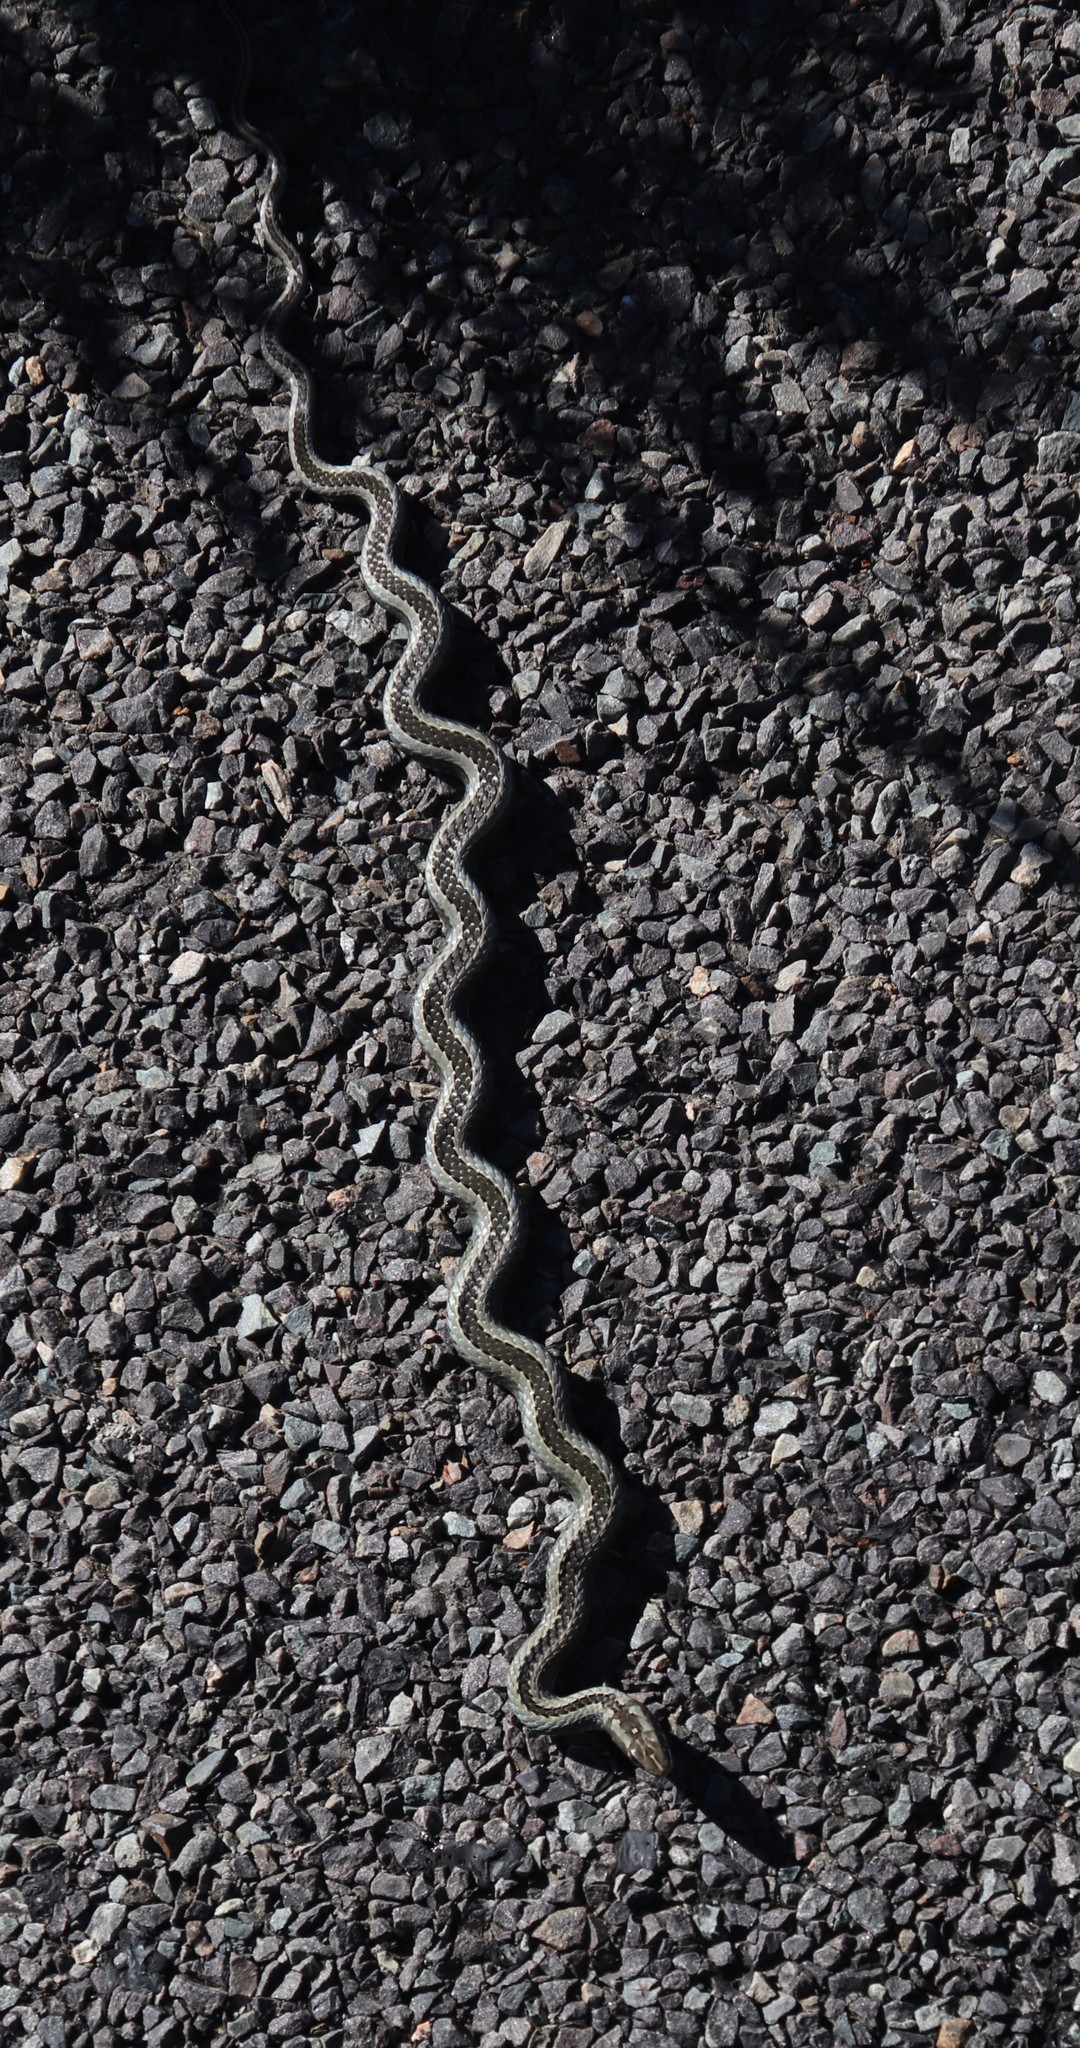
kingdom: Animalia
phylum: Chordata
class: Squamata
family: Psammophiidae
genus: Psammophis
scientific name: Psammophis crucifer
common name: Cross-marked grass snake
